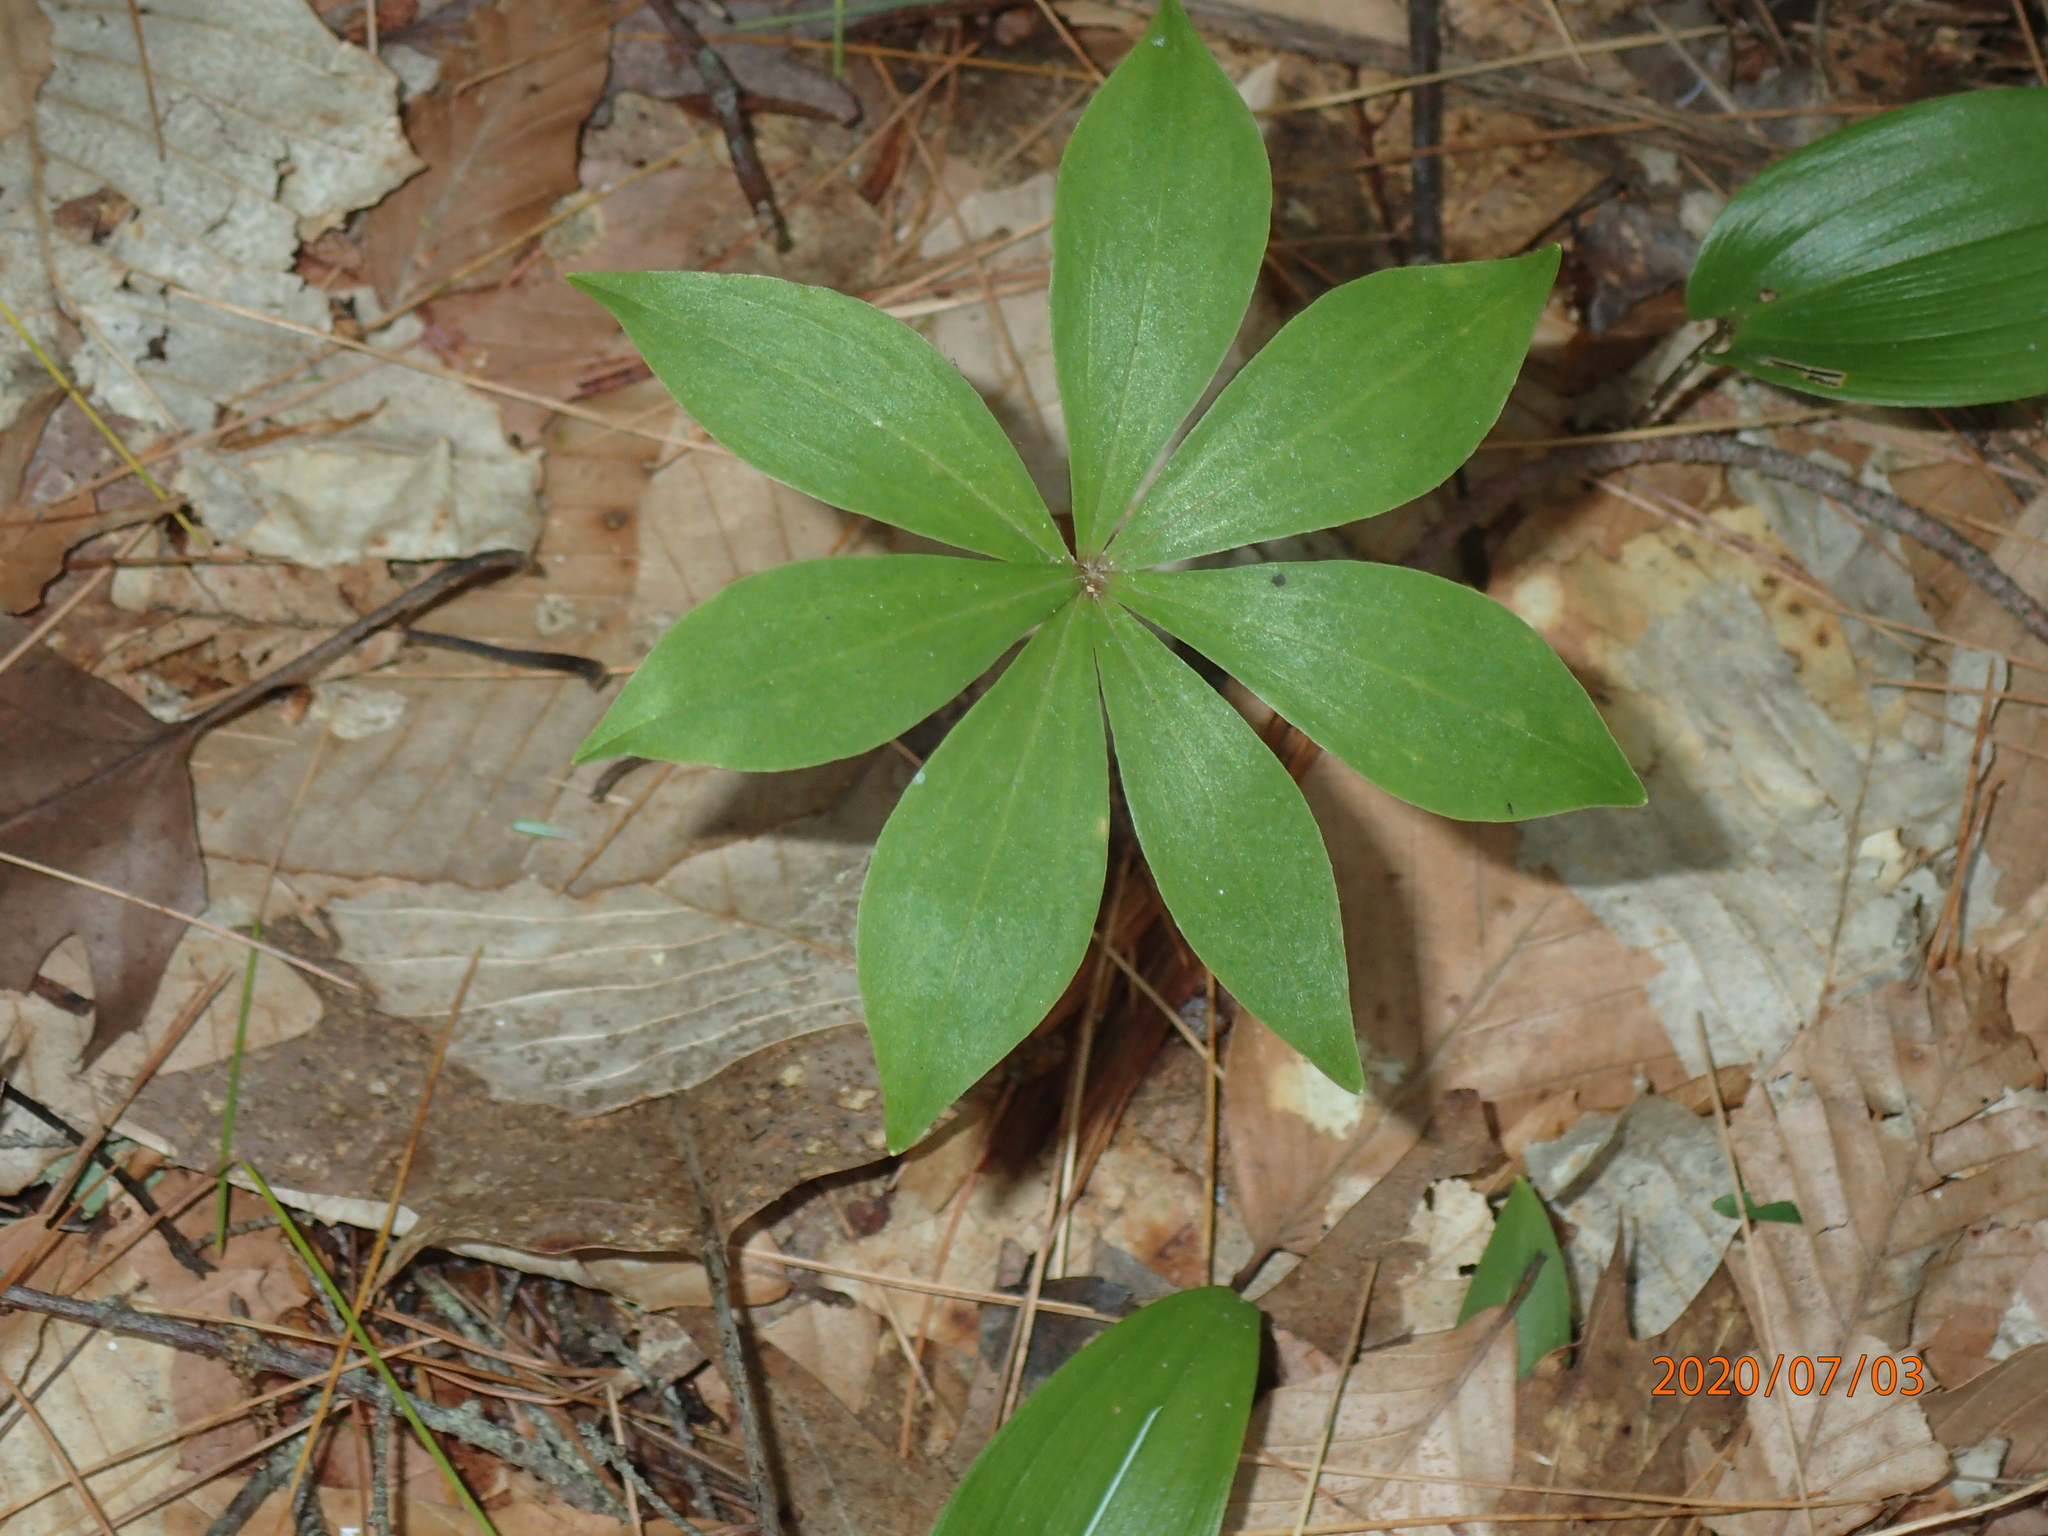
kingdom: Plantae
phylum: Tracheophyta
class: Liliopsida
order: Liliales
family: Liliaceae
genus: Medeola
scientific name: Medeola virginiana
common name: Indian cucumber-root
